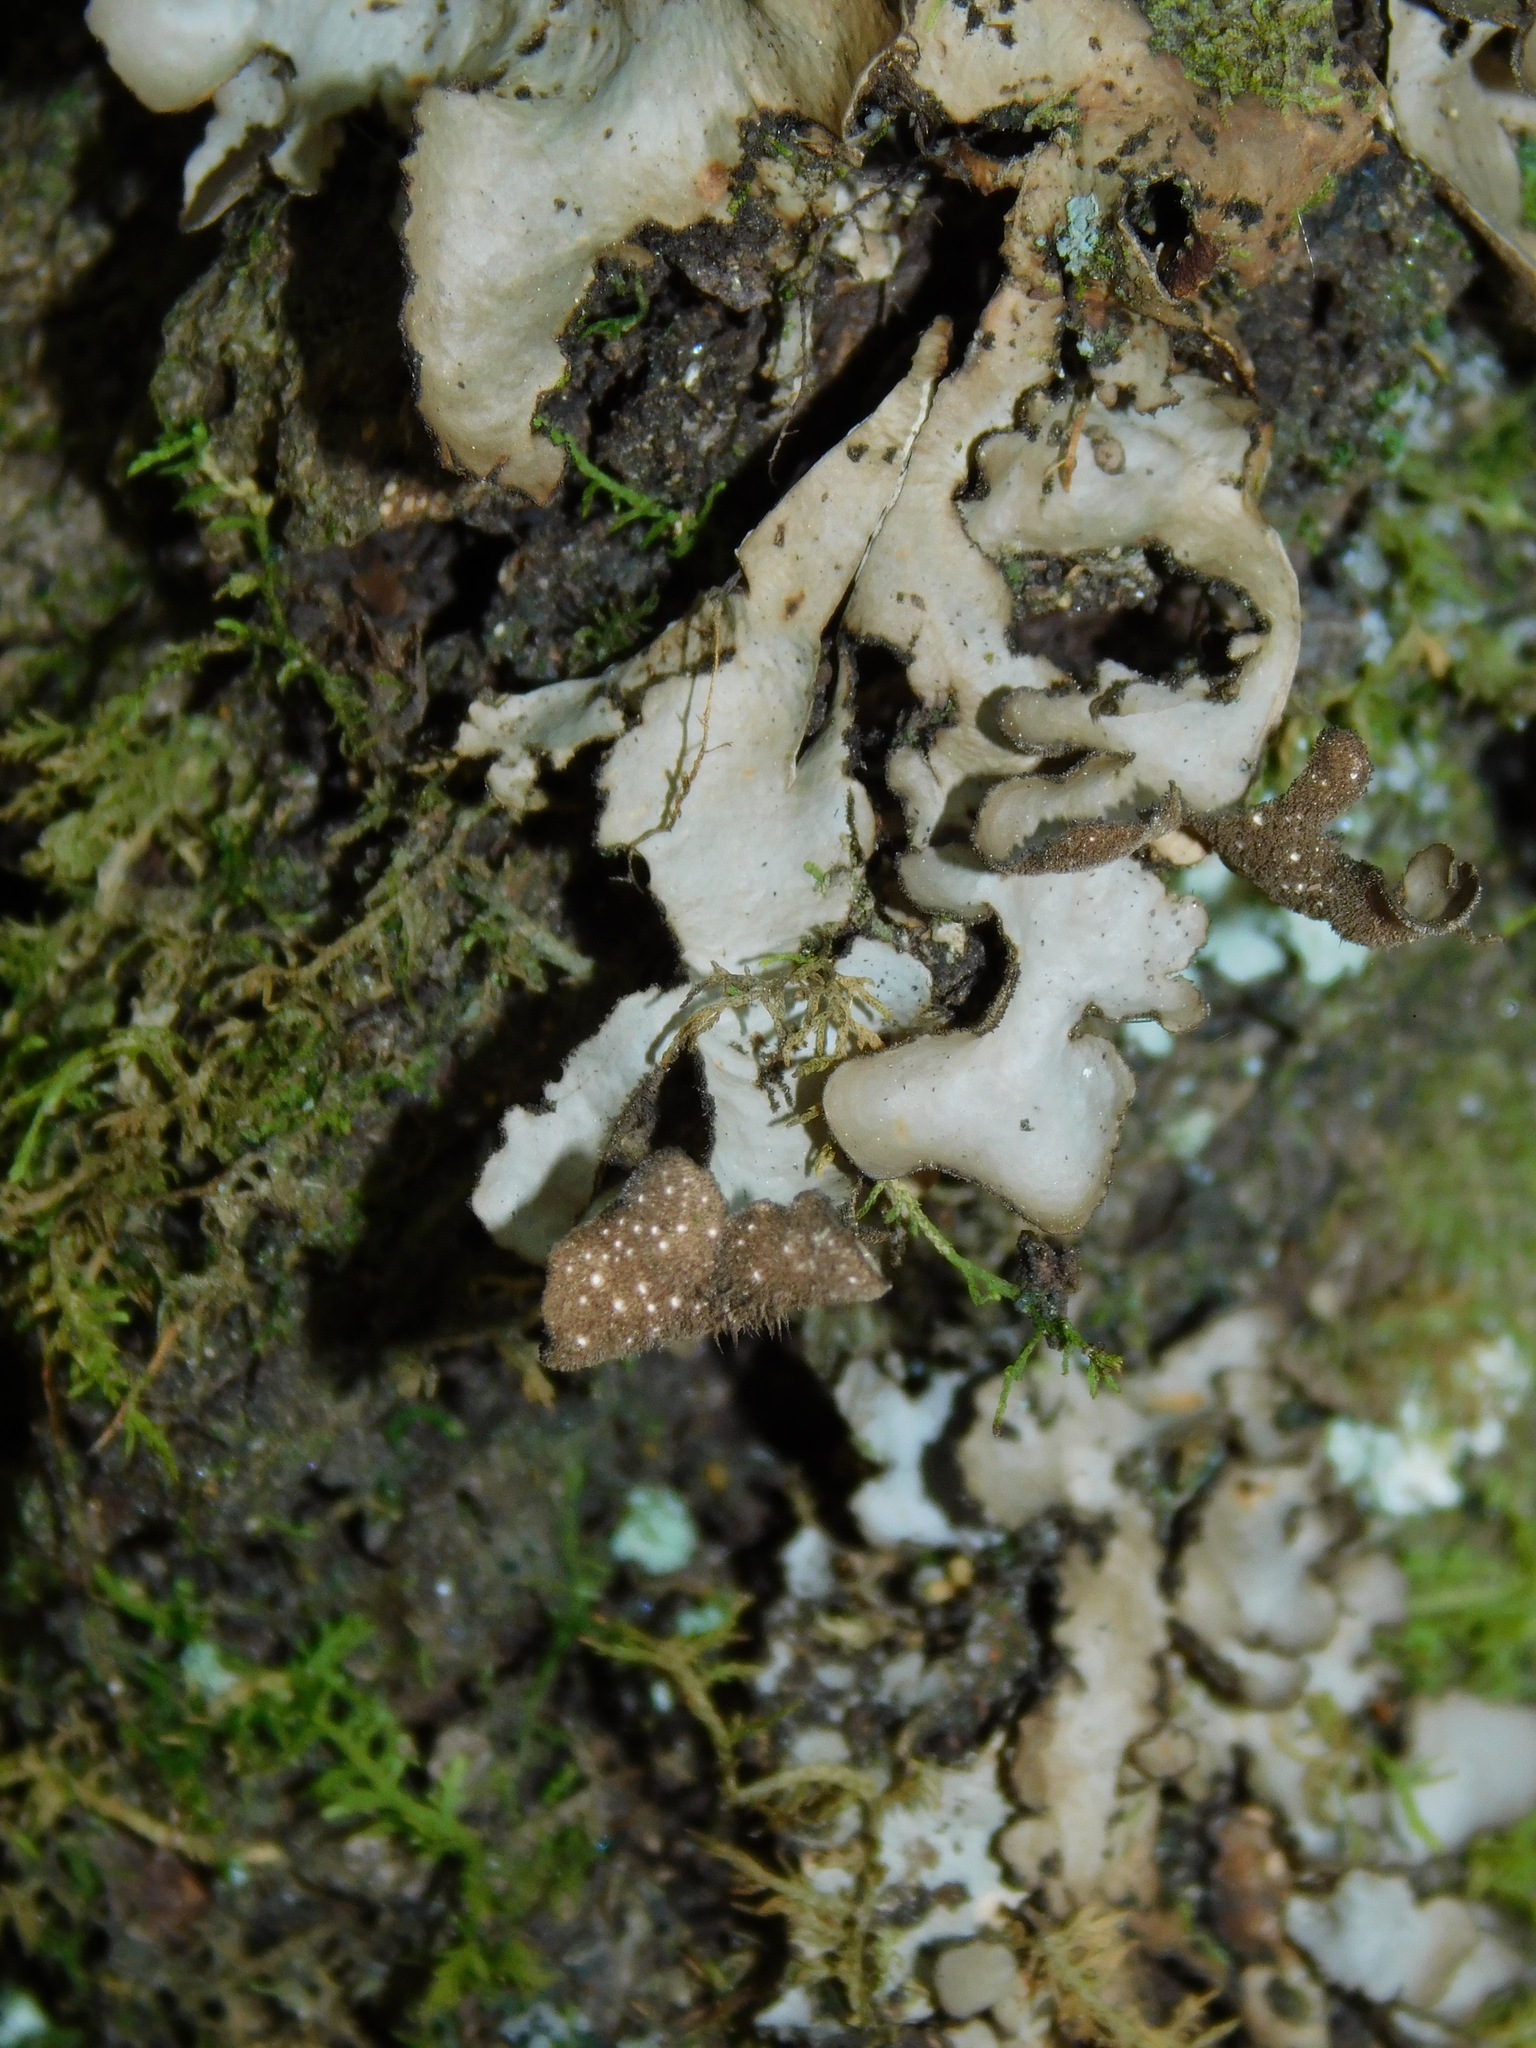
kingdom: Fungi
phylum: Ascomycota
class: Lecanoromycetes
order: Peltigerales
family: Lobariaceae
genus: Sticta
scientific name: Sticta beauvoisii
